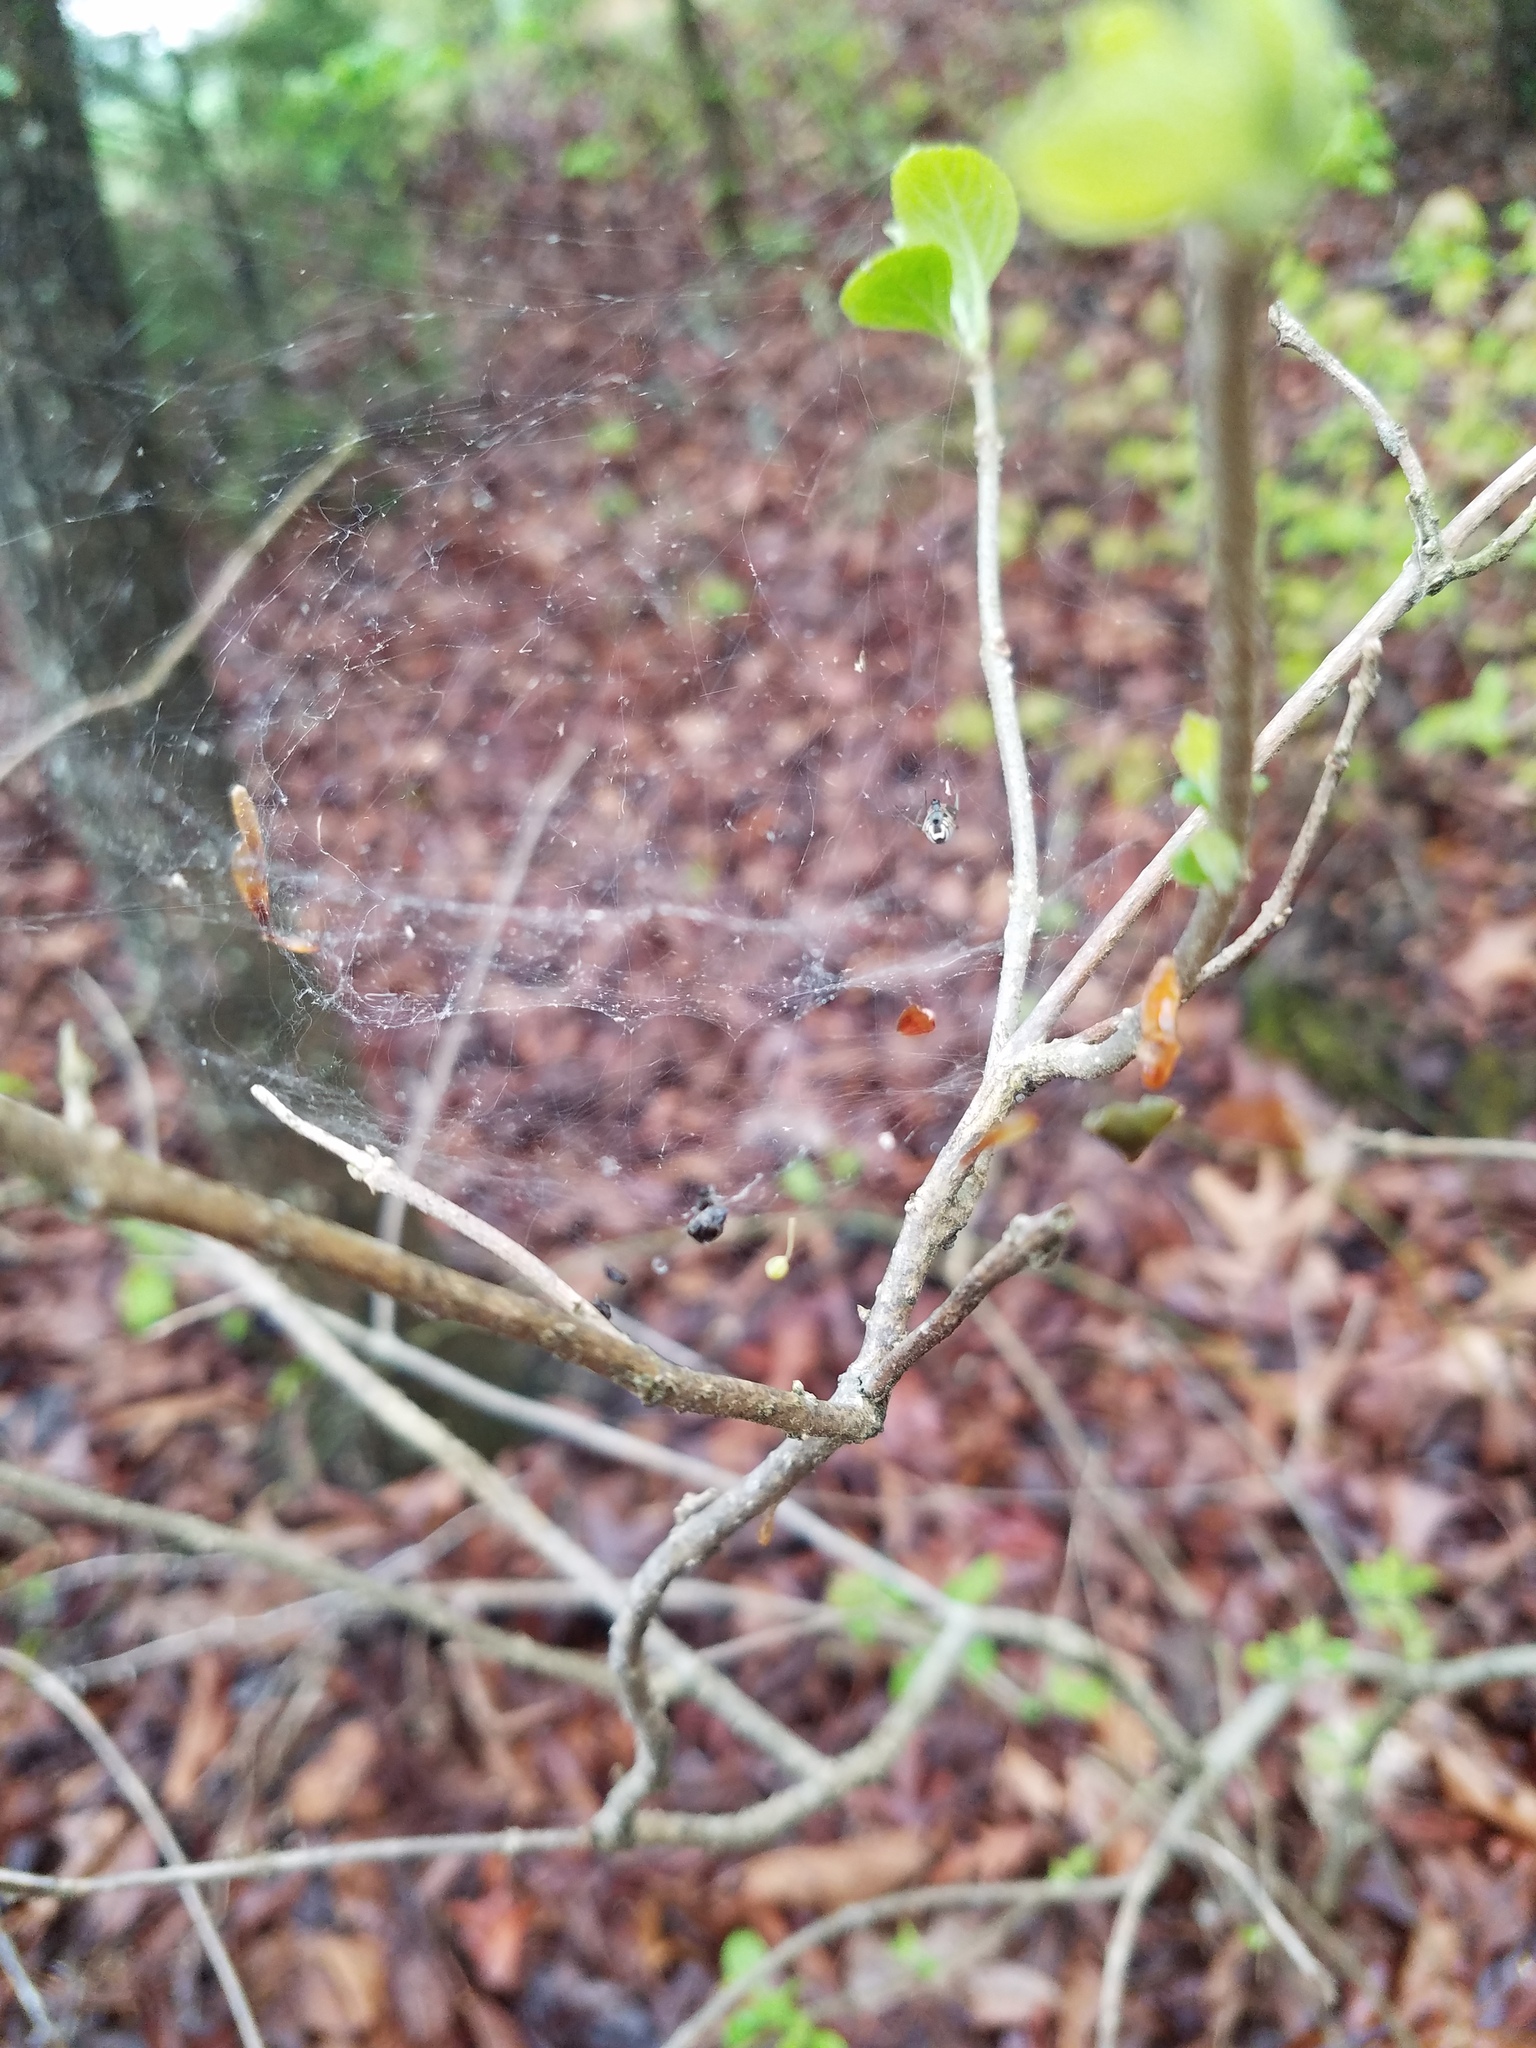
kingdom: Animalia
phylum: Arthropoda
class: Arachnida
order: Araneae
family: Linyphiidae
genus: Frontinella
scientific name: Frontinella pyramitela
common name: Bowl-and-doily spider
